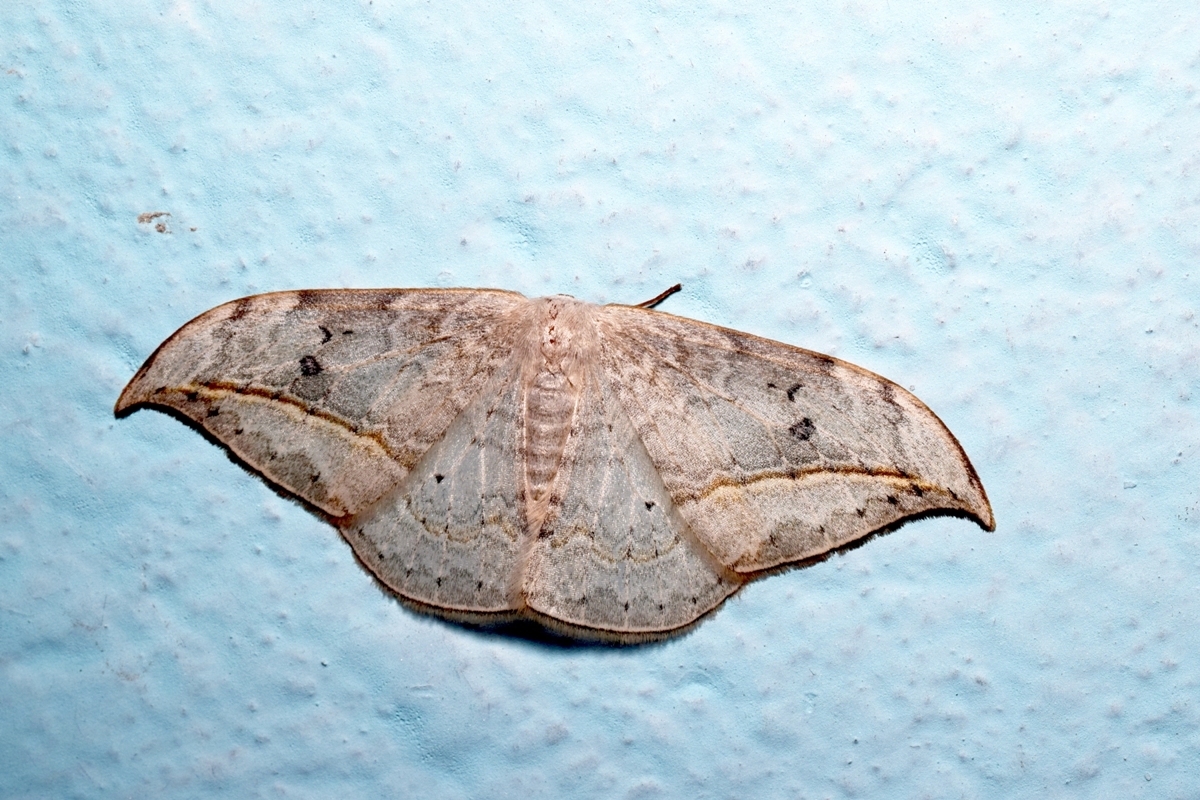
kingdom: Animalia
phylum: Arthropoda
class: Insecta
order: Lepidoptera
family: Drepanidae
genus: Drepana
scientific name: Drepana pallida
